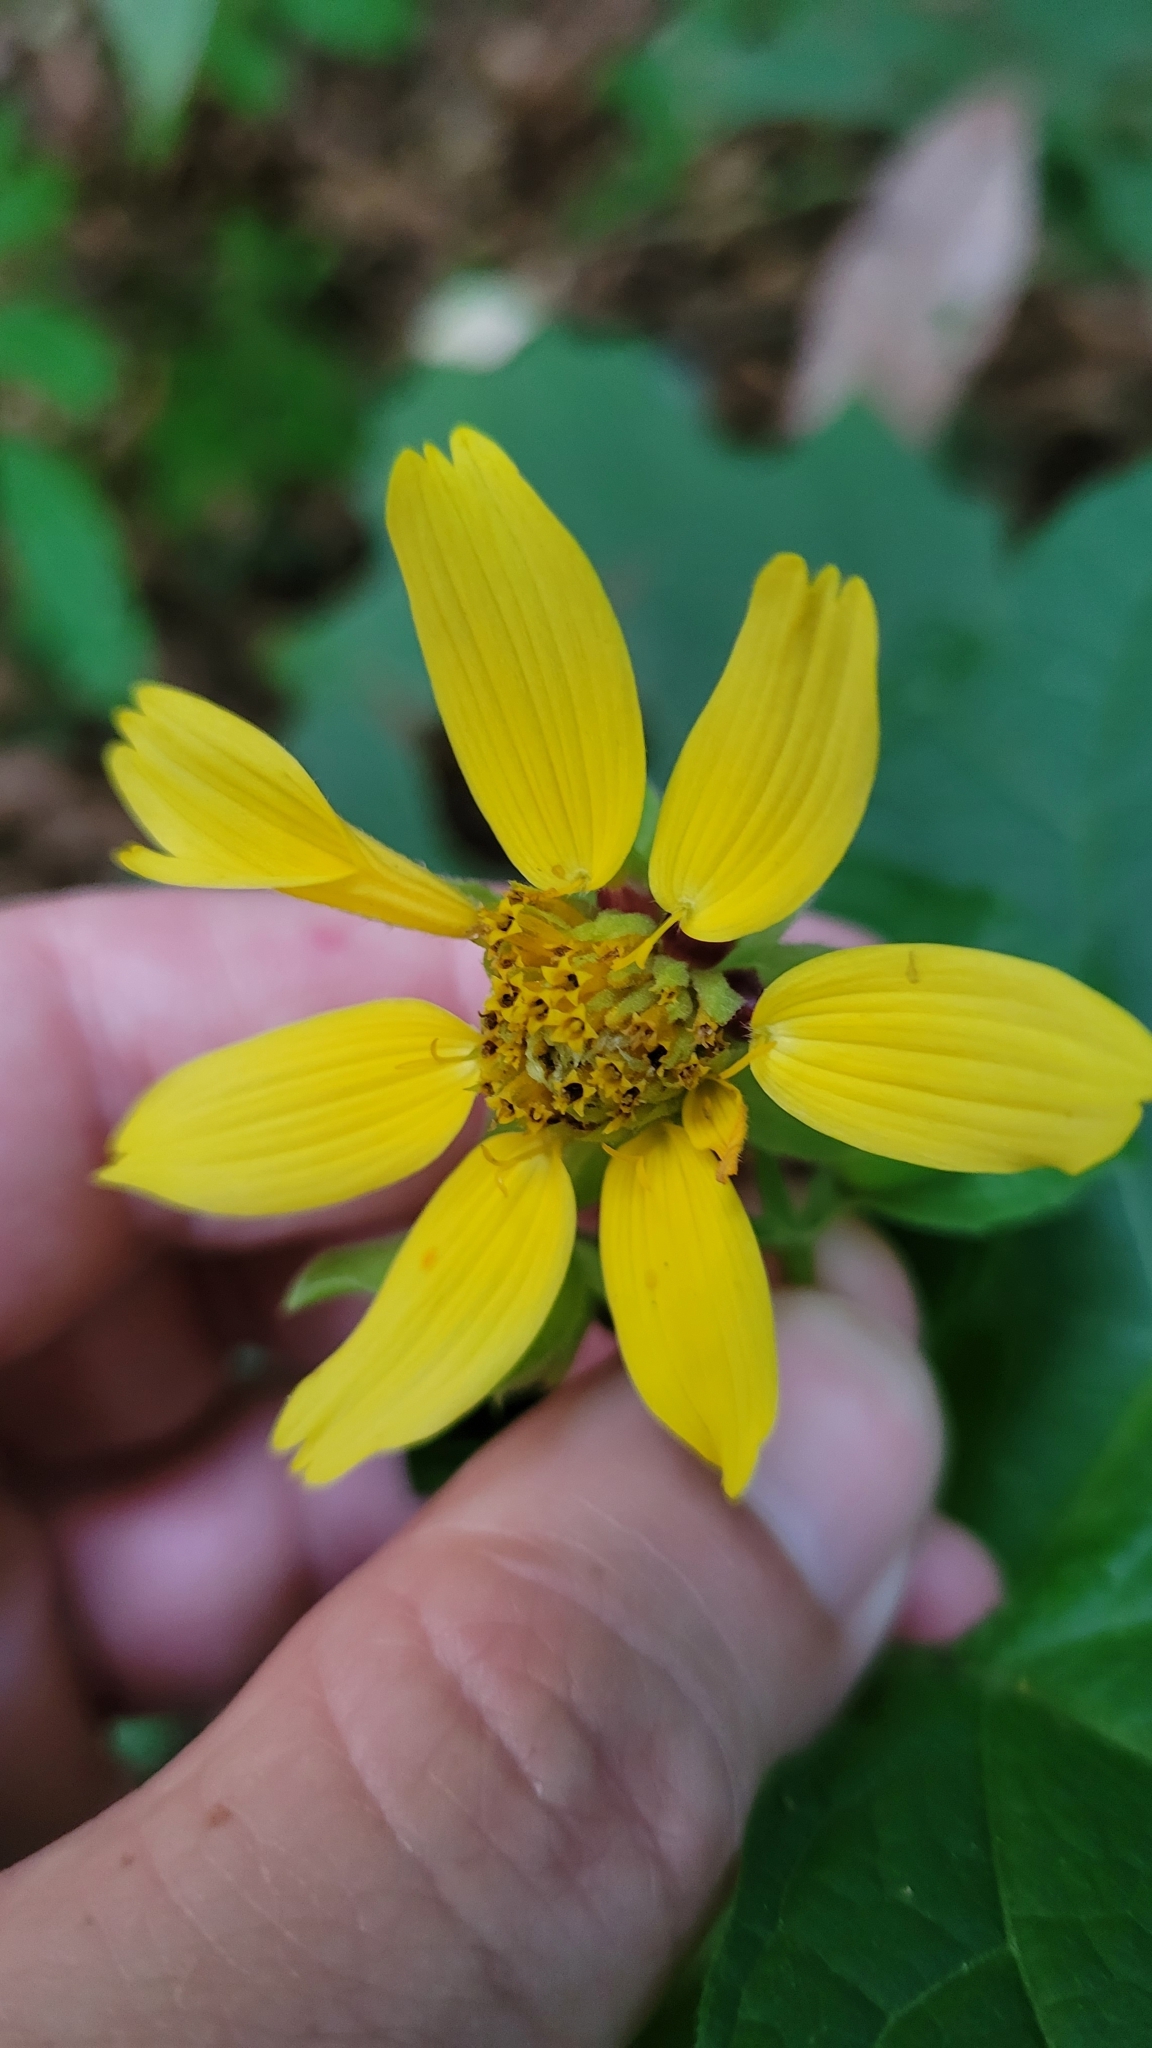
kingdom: Plantae
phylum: Tracheophyta
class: Magnoliopsida
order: Asterales
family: Asteraceae
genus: Smallanthus
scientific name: Smallanthus uvedalia
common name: Bear's-foot
